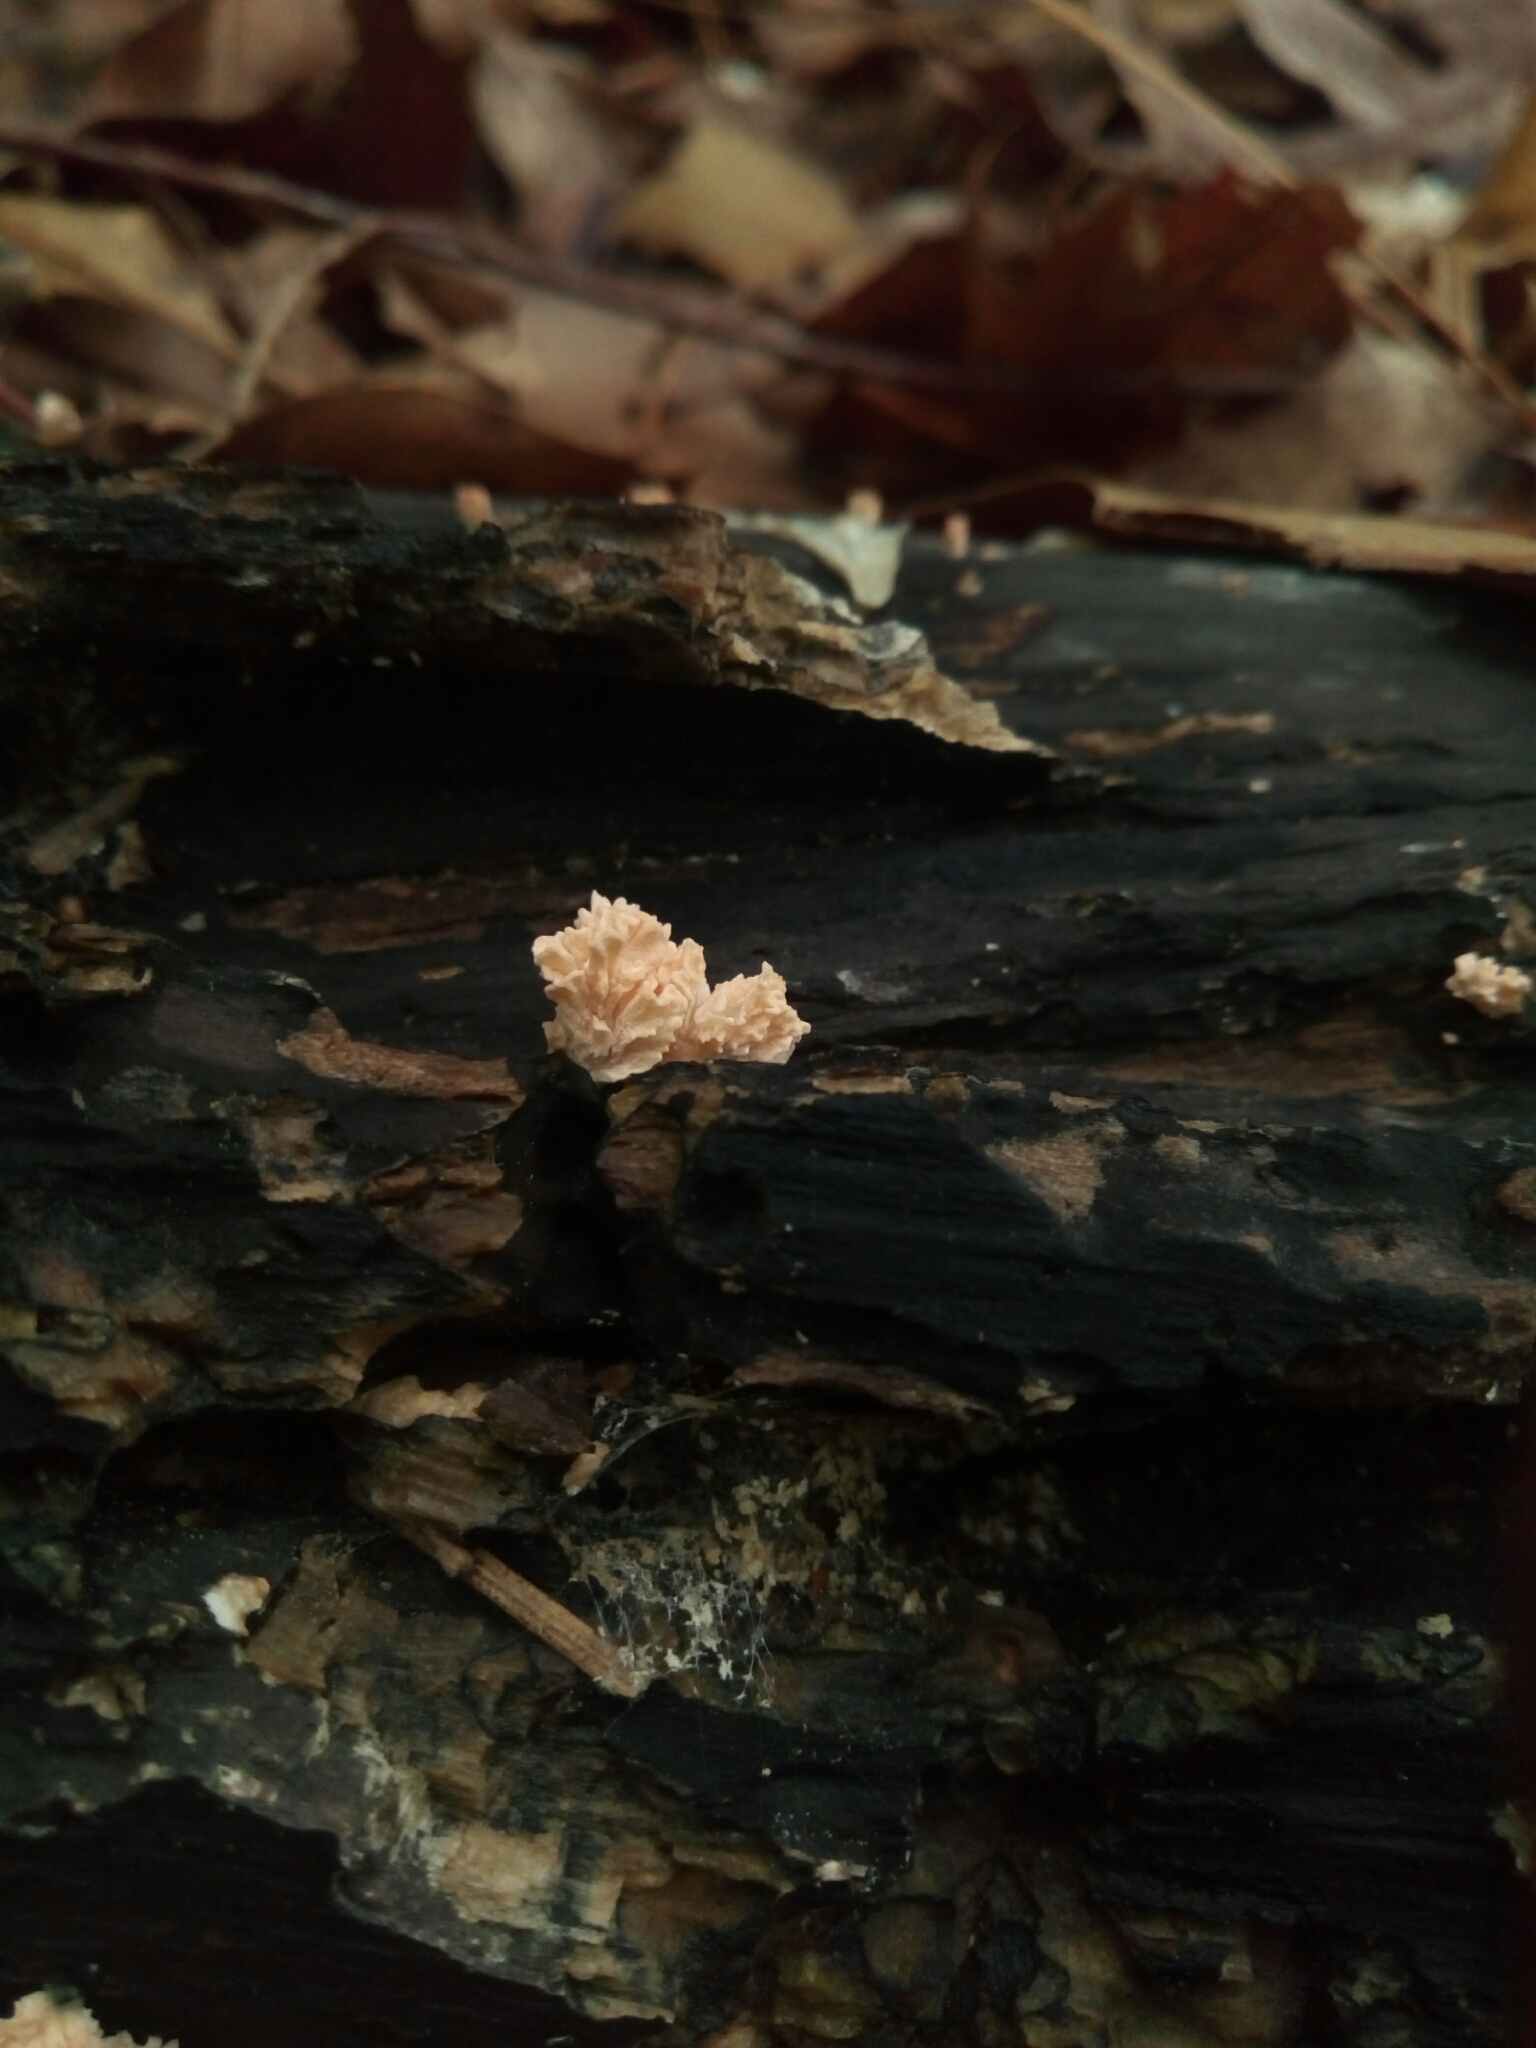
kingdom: Fungi
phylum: Ascomycota
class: Sordariomycetes
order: Xylariales
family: Xylariaceae
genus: Xylaria
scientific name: Xylaria cubensis
